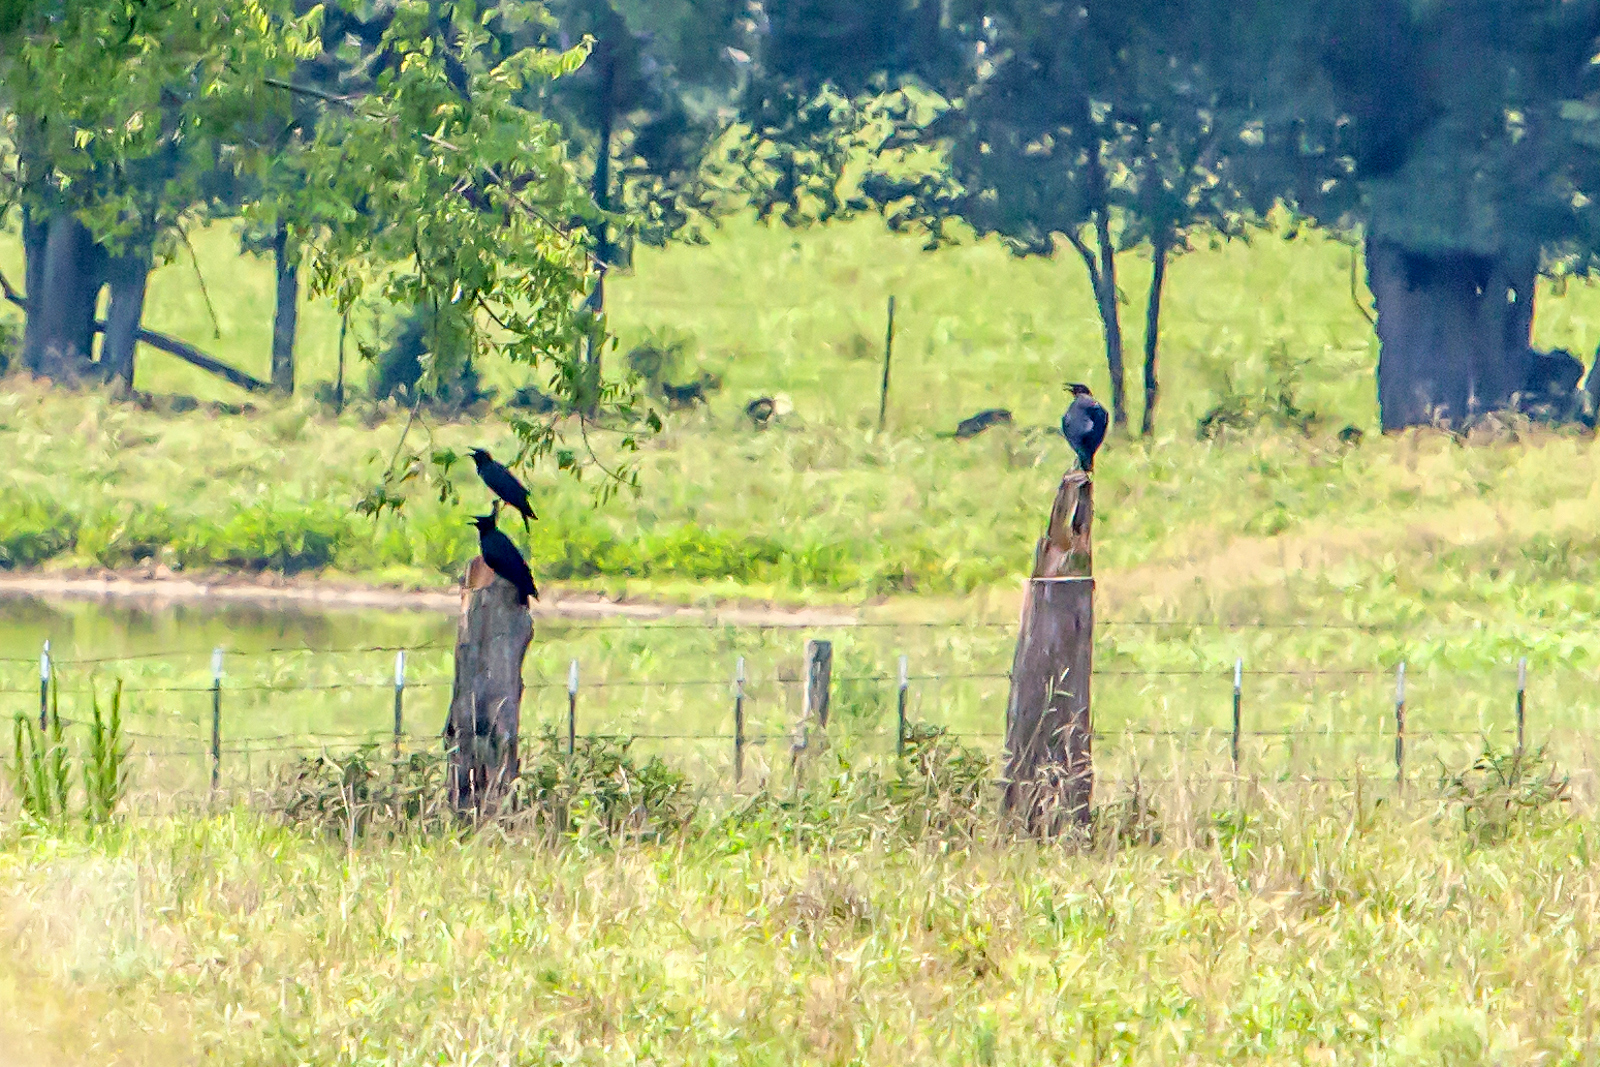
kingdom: Animalia
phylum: Chordata
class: Aves
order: Passeriformes
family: Corvidae
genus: Corvus
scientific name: Corvus brachyrhynchos
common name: American crow
